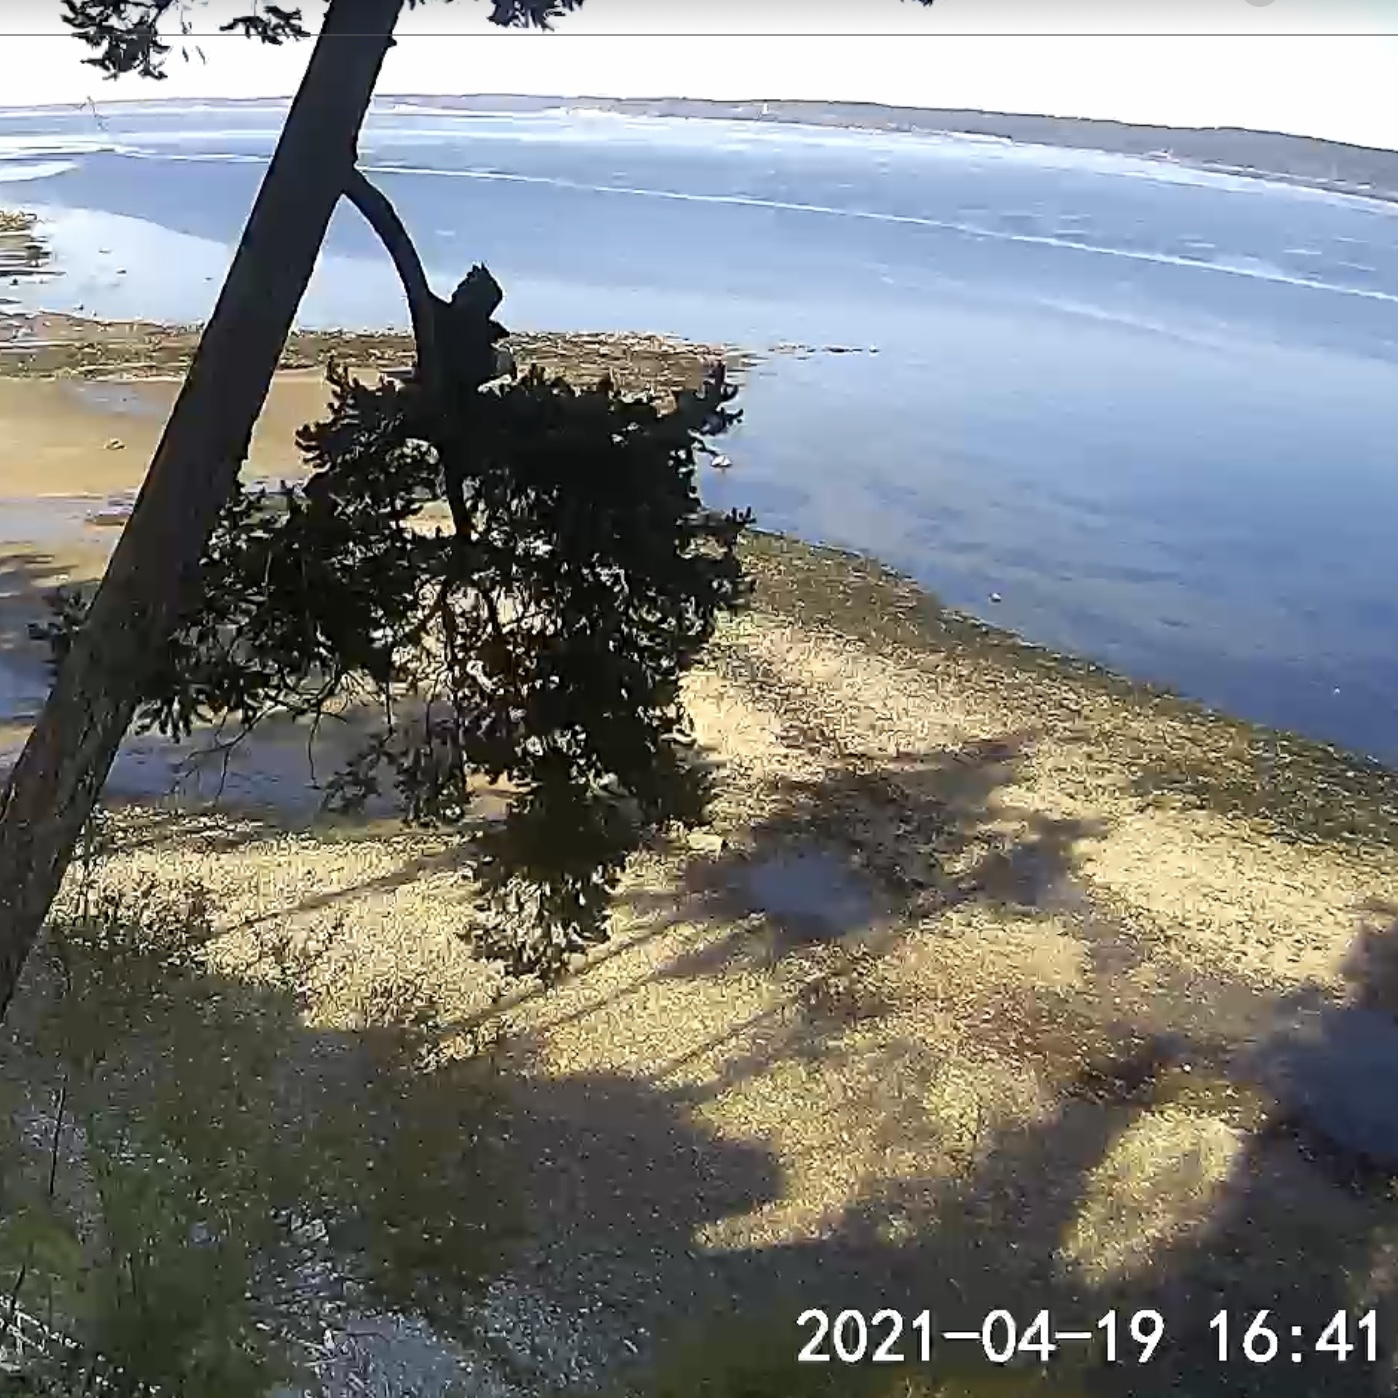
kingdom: Animalia
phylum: Chordata
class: Aves
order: Accipitriformes
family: Accipitridae
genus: Haliaeetus
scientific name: Haliaeetus leucocephalus
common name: Bald eagle
